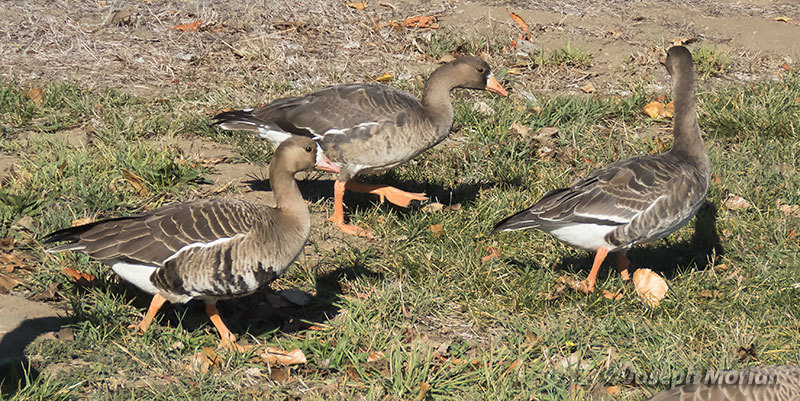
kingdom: Animalia
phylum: Chordata
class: Aves
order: Anseriformes
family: Anatidae
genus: Anser
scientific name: Anser albifrons
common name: Greater white-fronted goose
